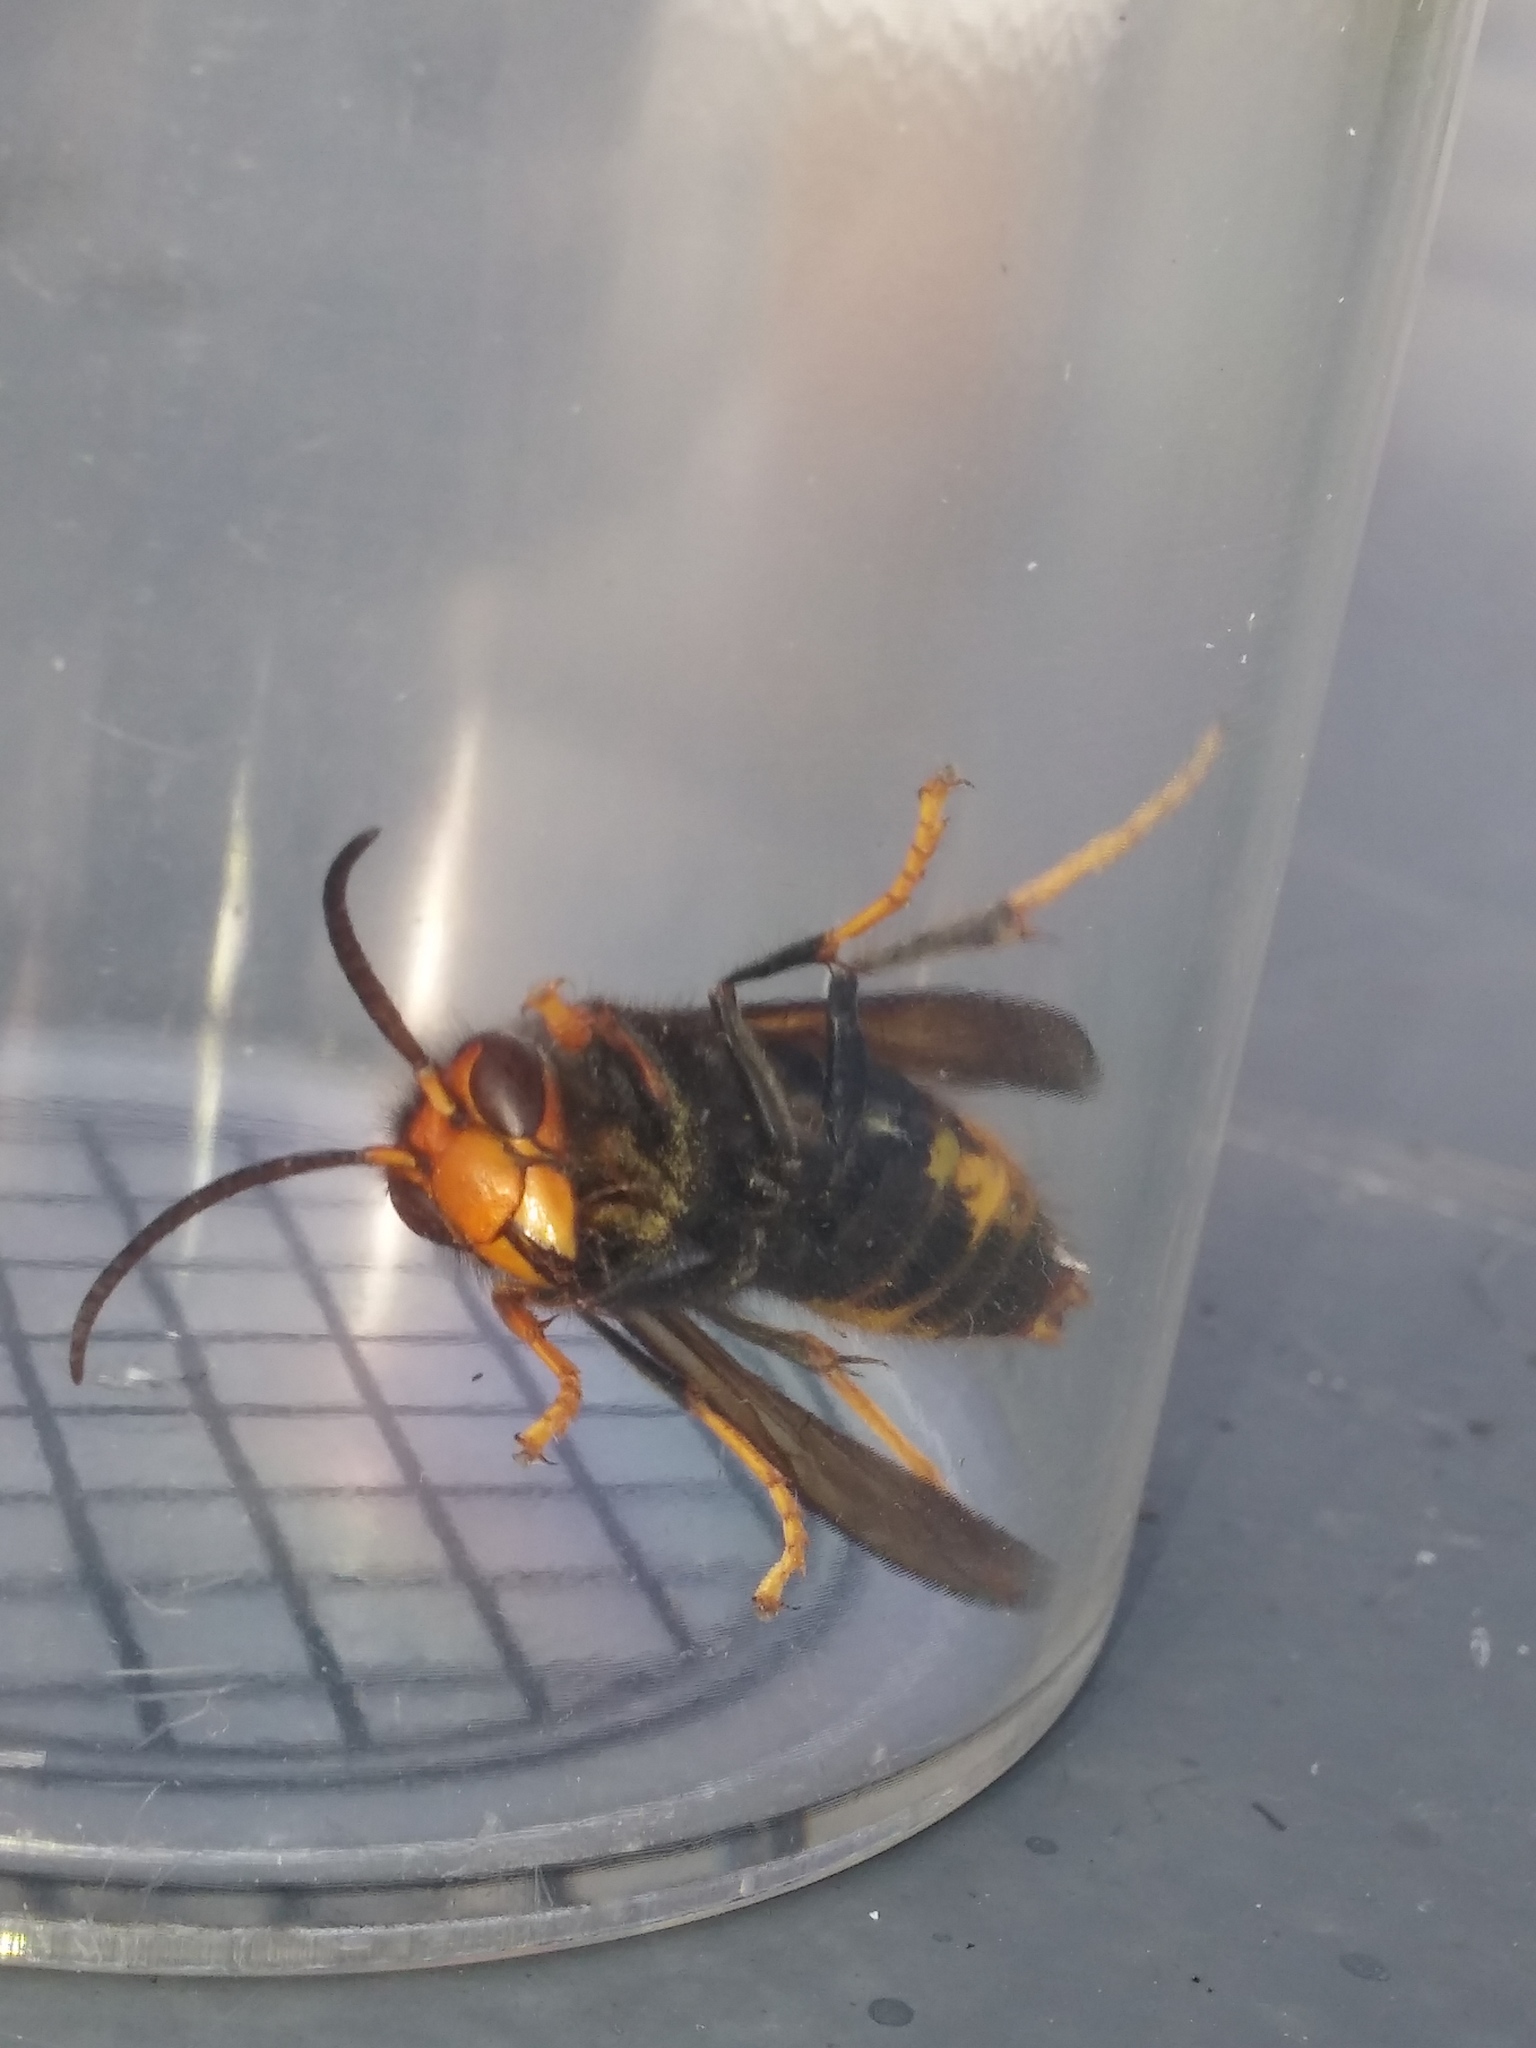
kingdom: Animalia
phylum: Arthropoda
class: Insecta
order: Hymenoptera
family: Vespidae
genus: Vespa
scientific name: Vespa velutina
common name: Asian hornet
